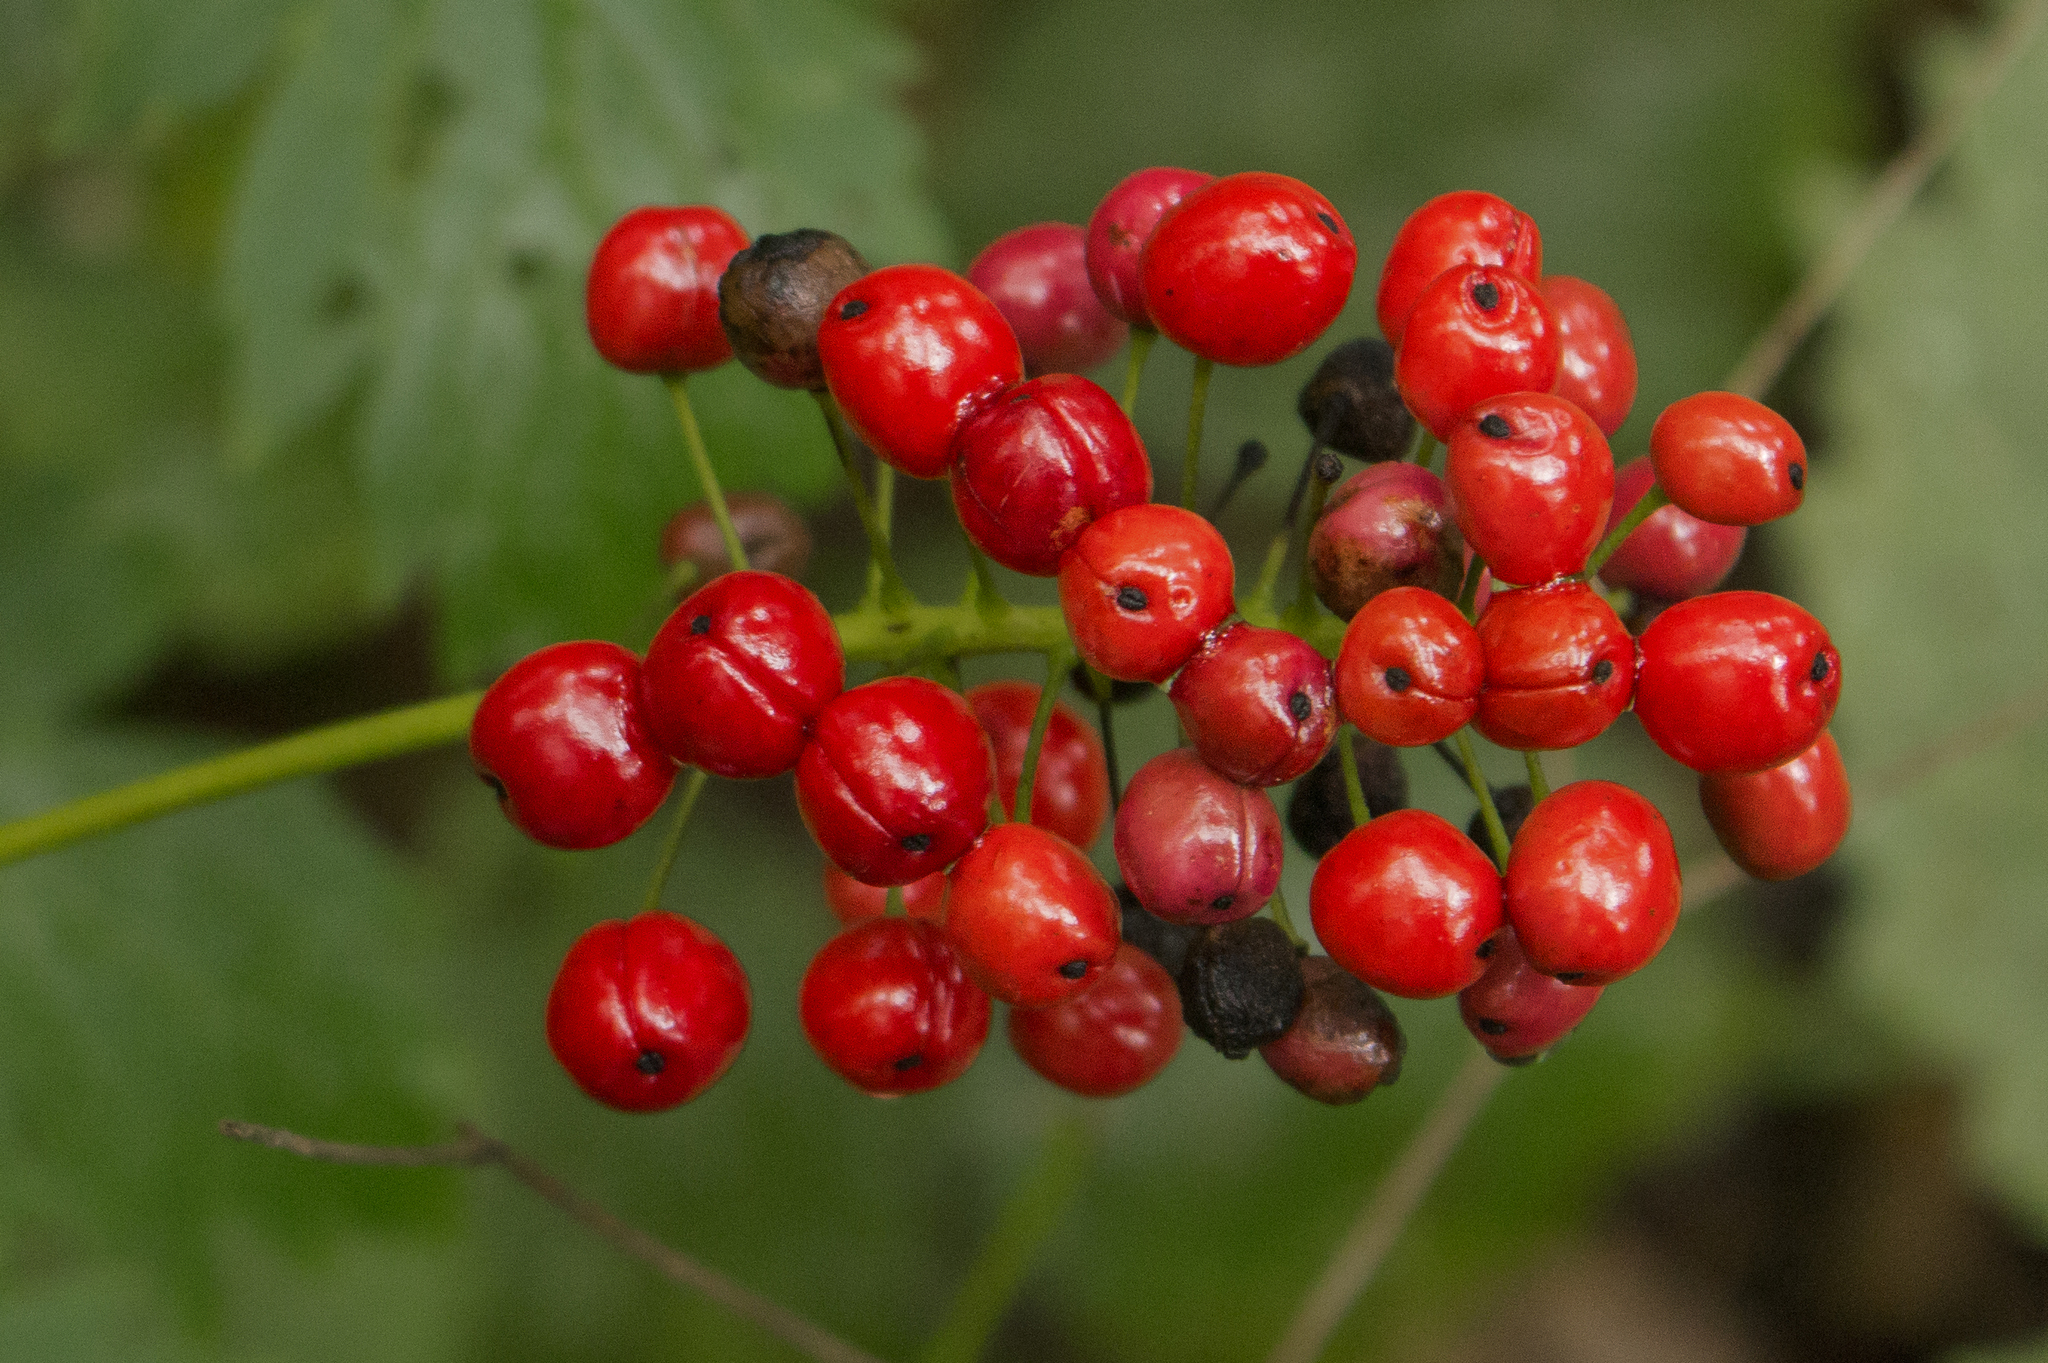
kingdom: Plantae
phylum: Tracheophyta
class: Magnoliopsida
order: Ranunculales
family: Ranunculaceae
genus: Actaea
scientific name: Actaea rubra
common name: Red baneberry
